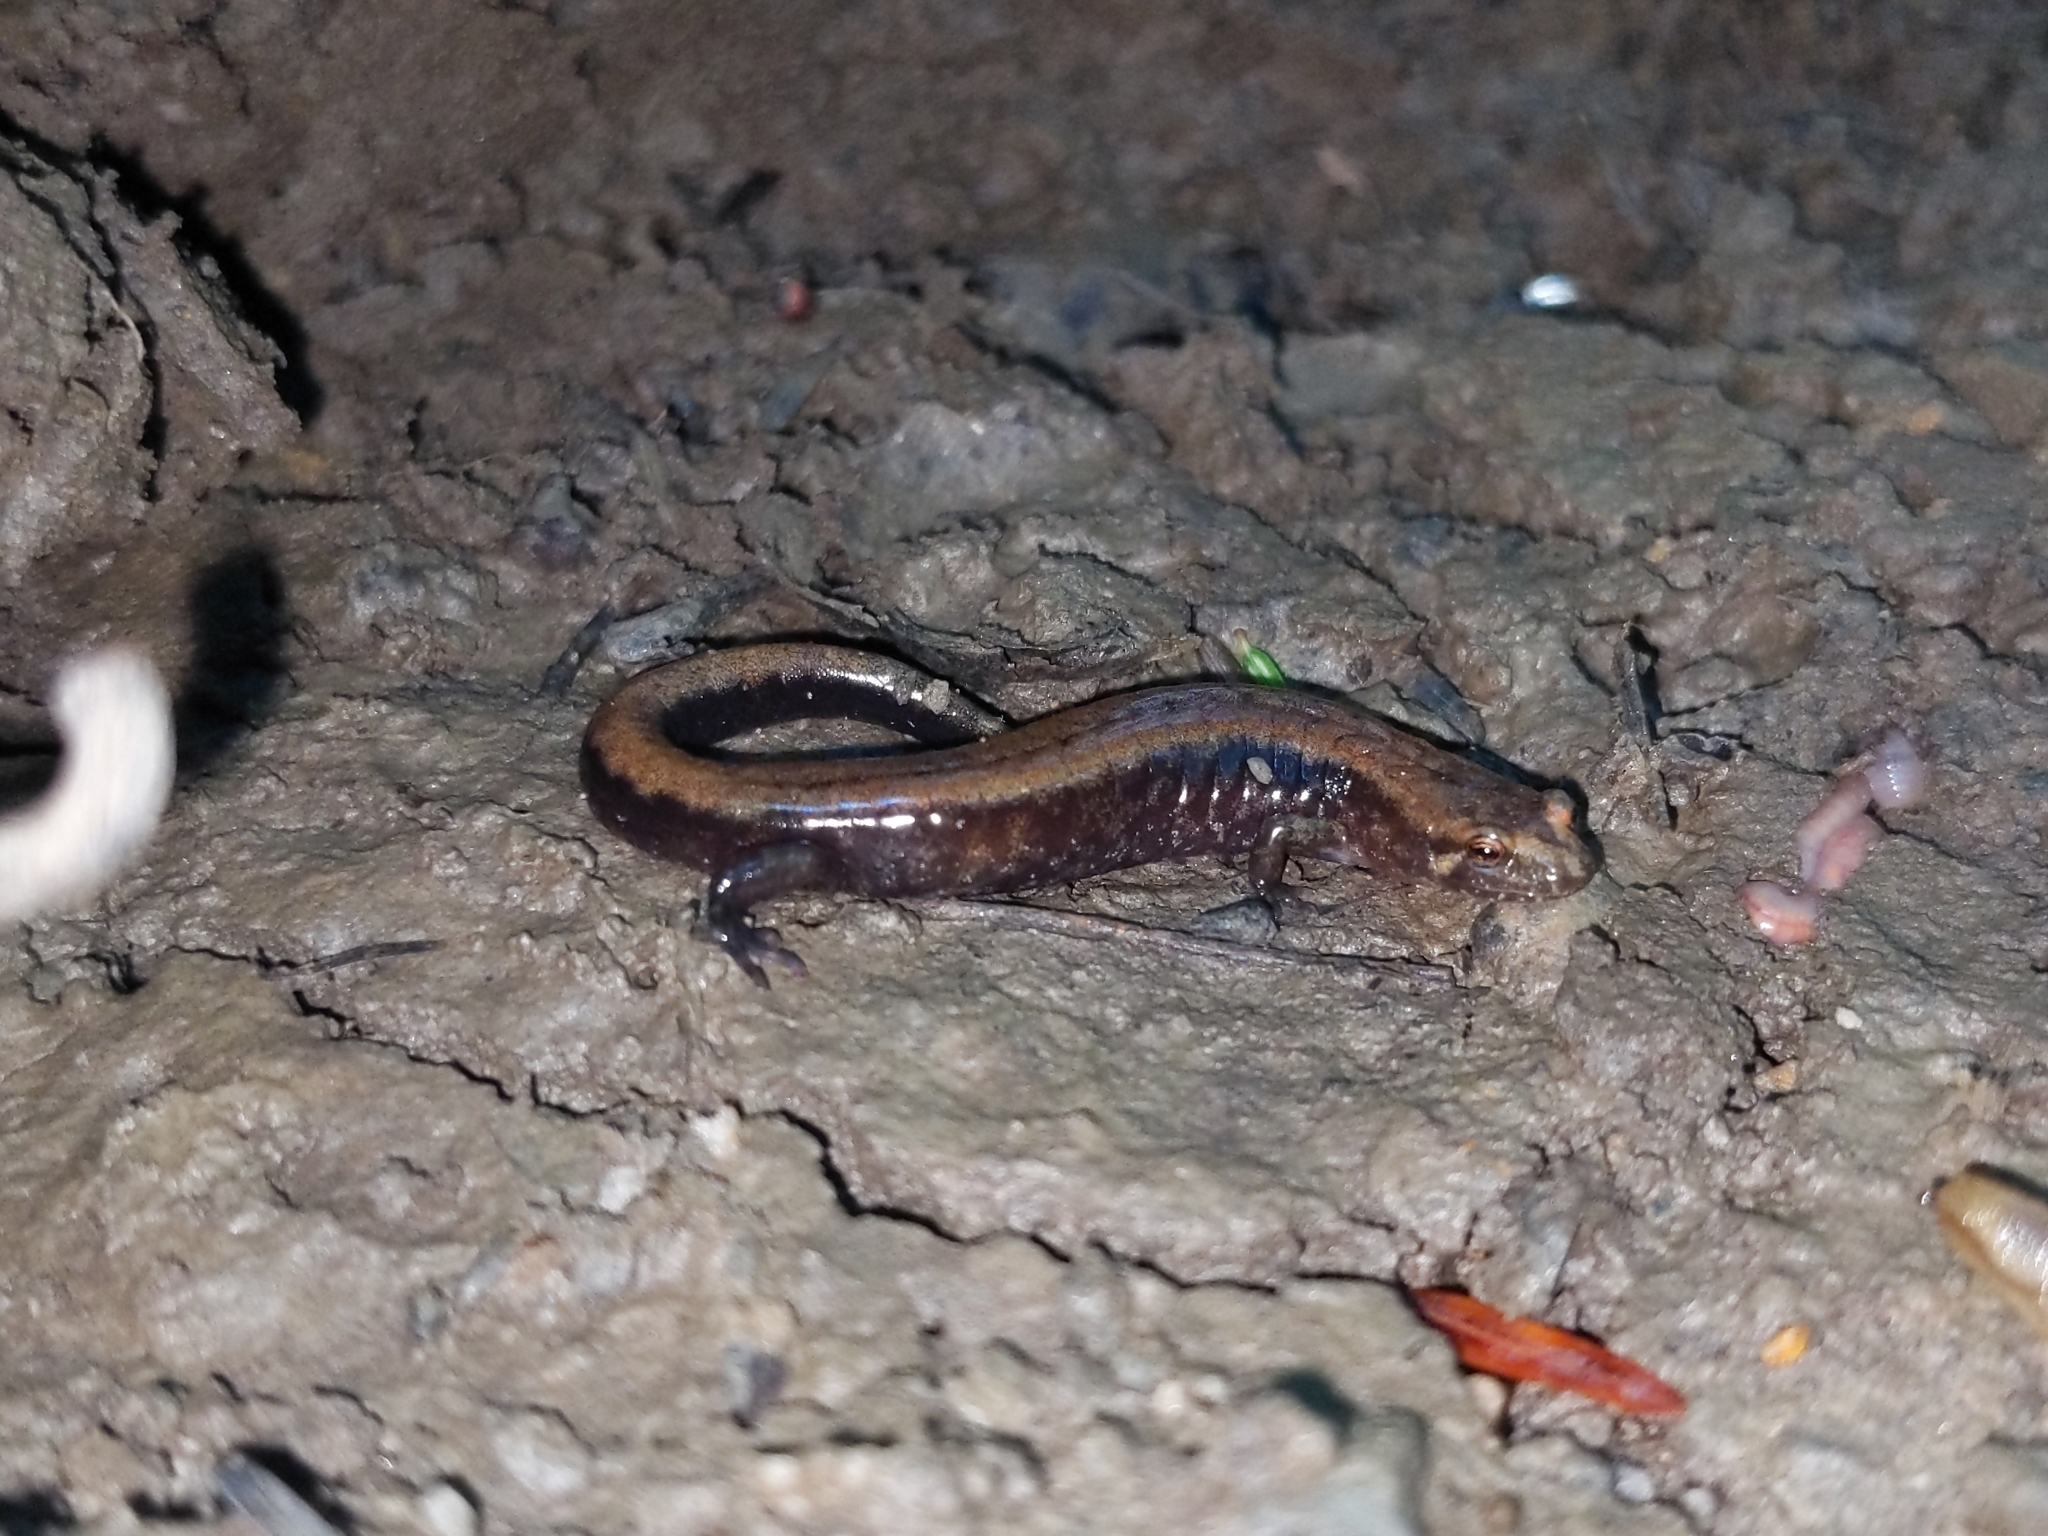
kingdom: Animalia
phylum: Chordata
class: Amphibia
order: Caudata
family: Plethodontidae
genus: Desmognathus
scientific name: Desmognathus ochrophaeus
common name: Allegheny mountain dusky salamander
